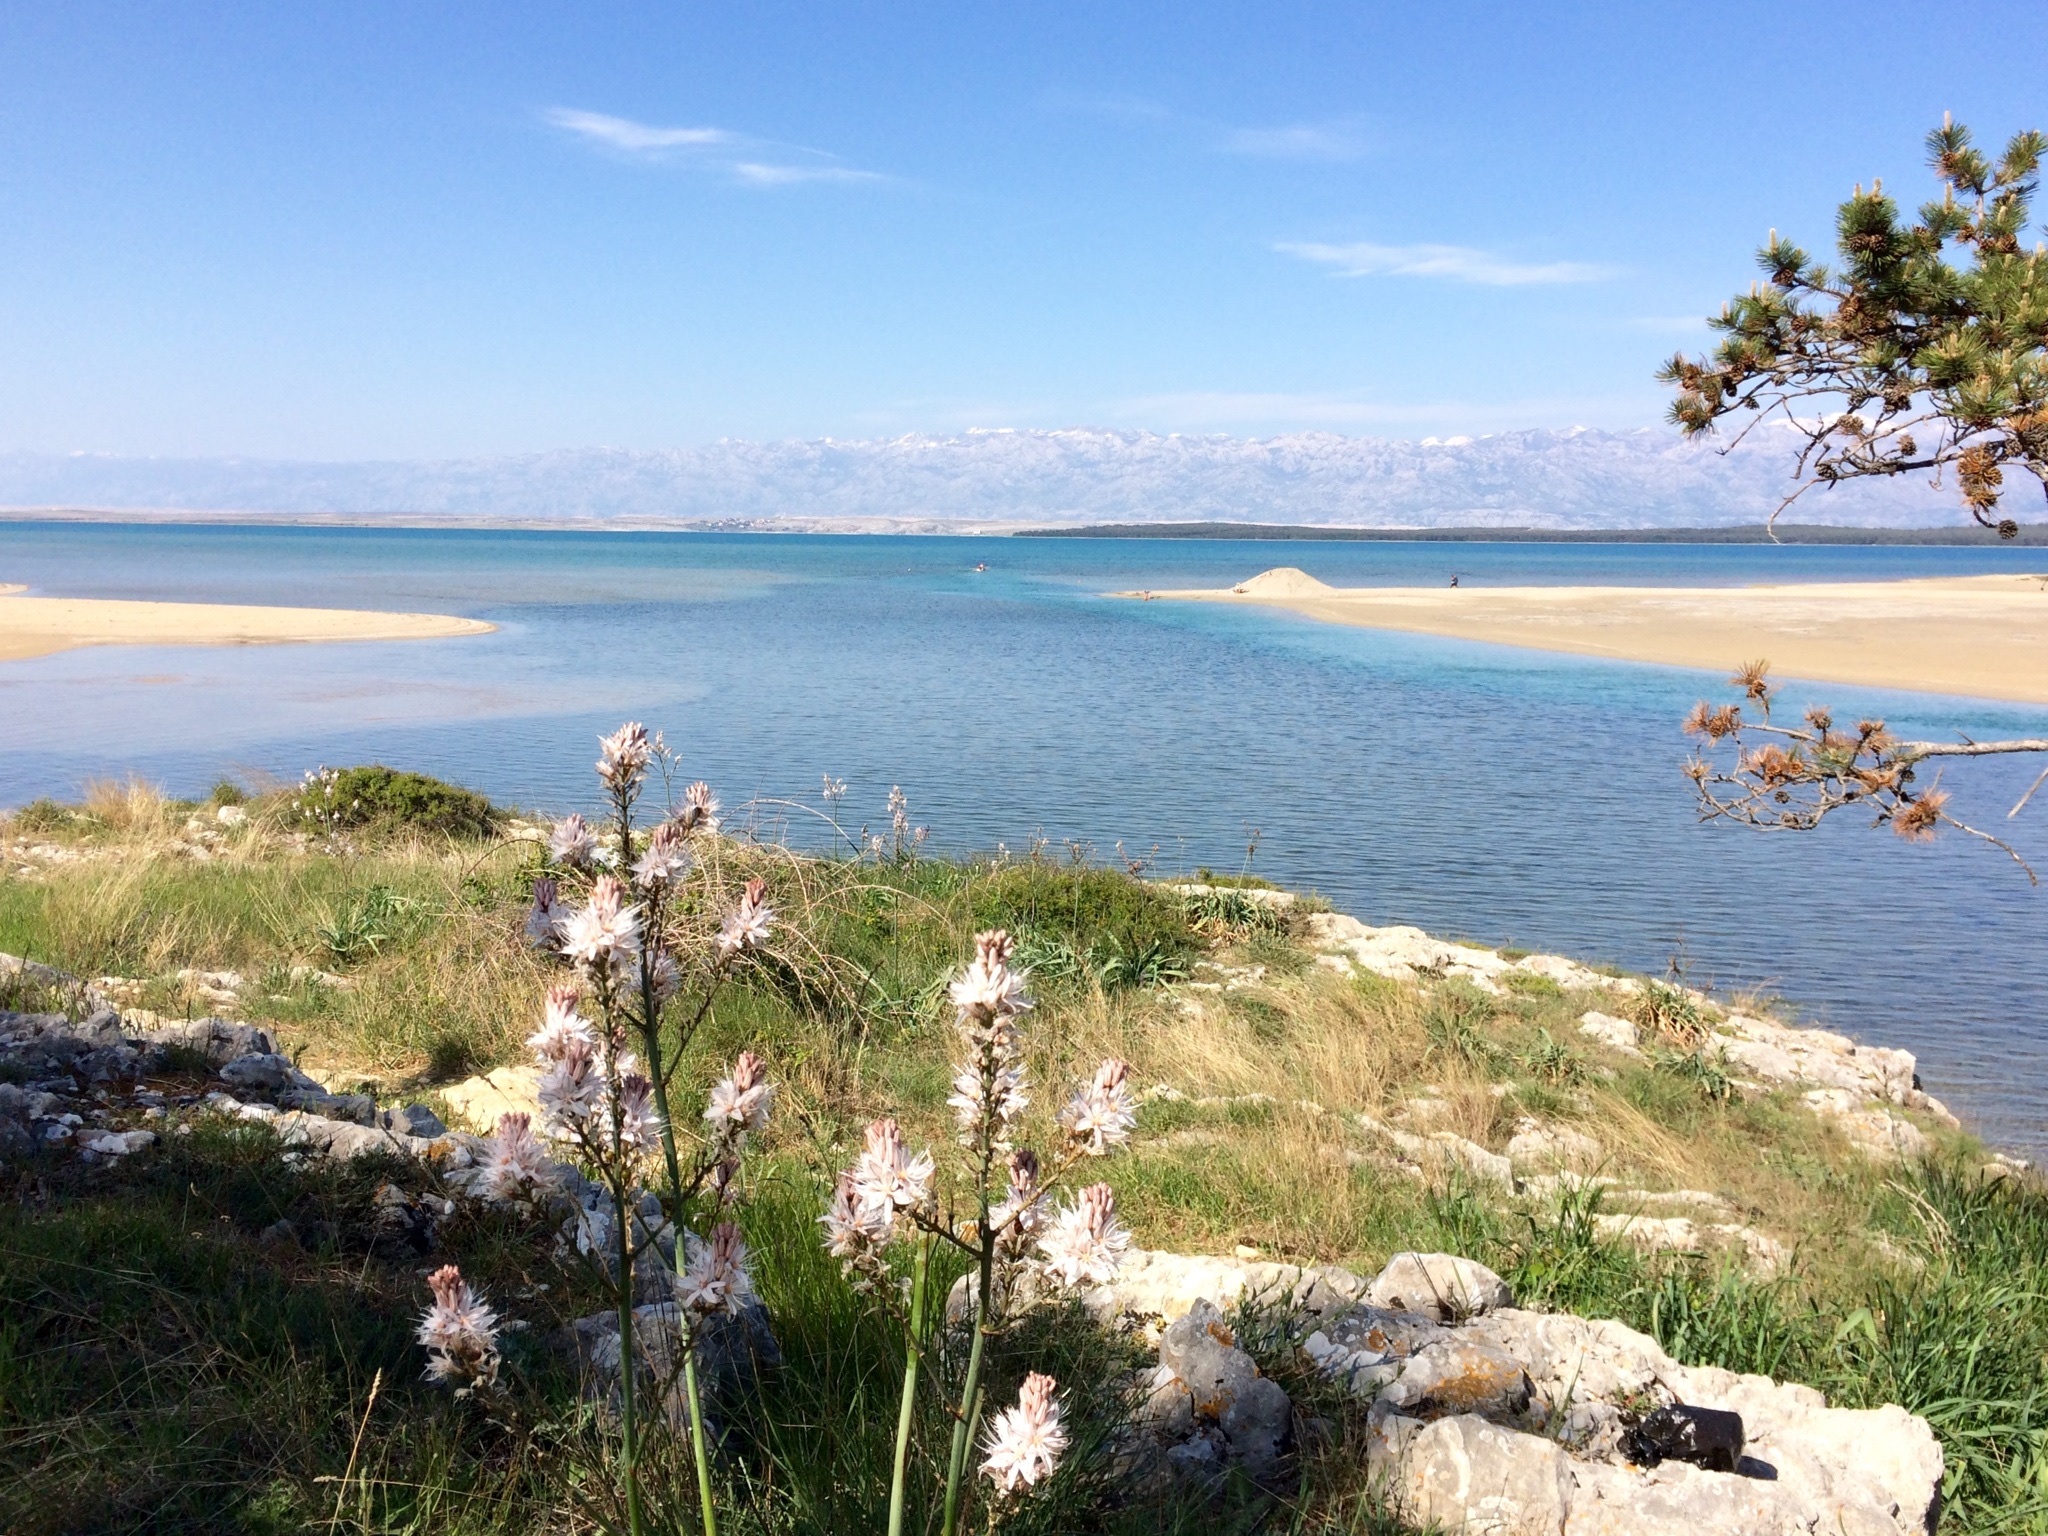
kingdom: Plantae
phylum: Tracheophyta
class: Liliopsida
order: Asparagales
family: Asphodelaceae
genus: Asphodelus
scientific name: Asphodelus ramosus
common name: Silverrod
